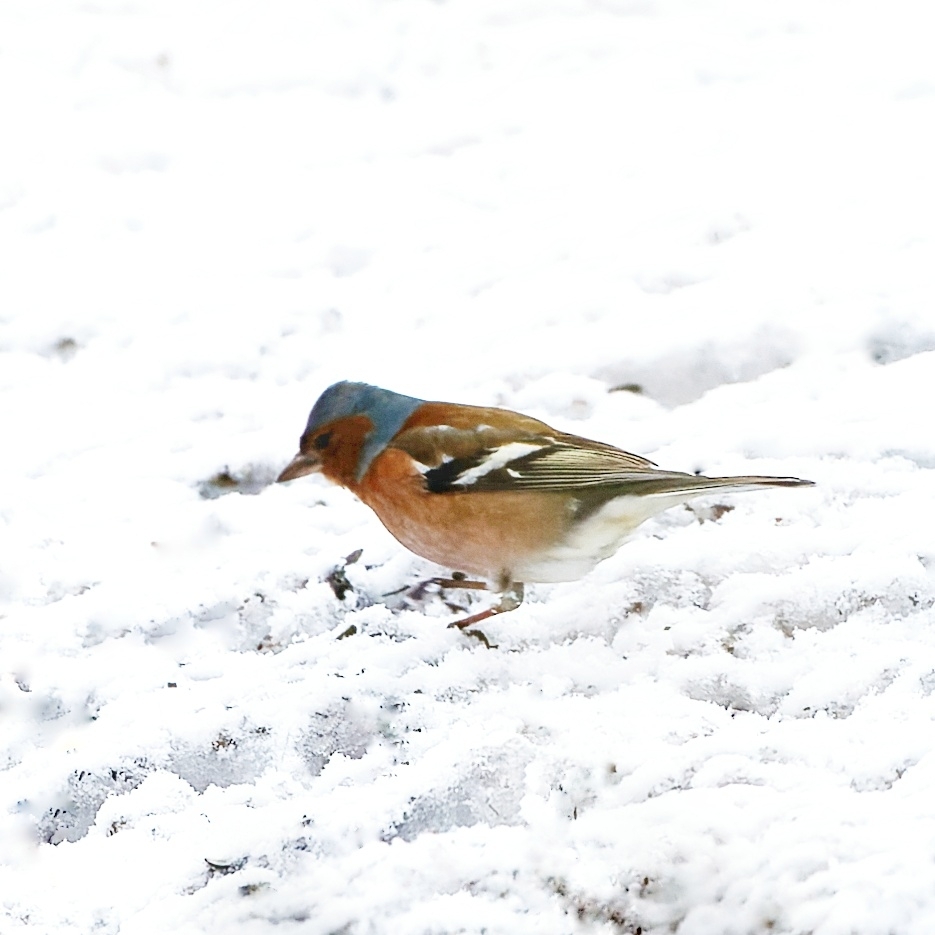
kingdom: Animalia
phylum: Chordata
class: Aves
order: Passeriformes
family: Fringillidae
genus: Fringilla
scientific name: Fringilla coelebs
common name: Common chaffinch
